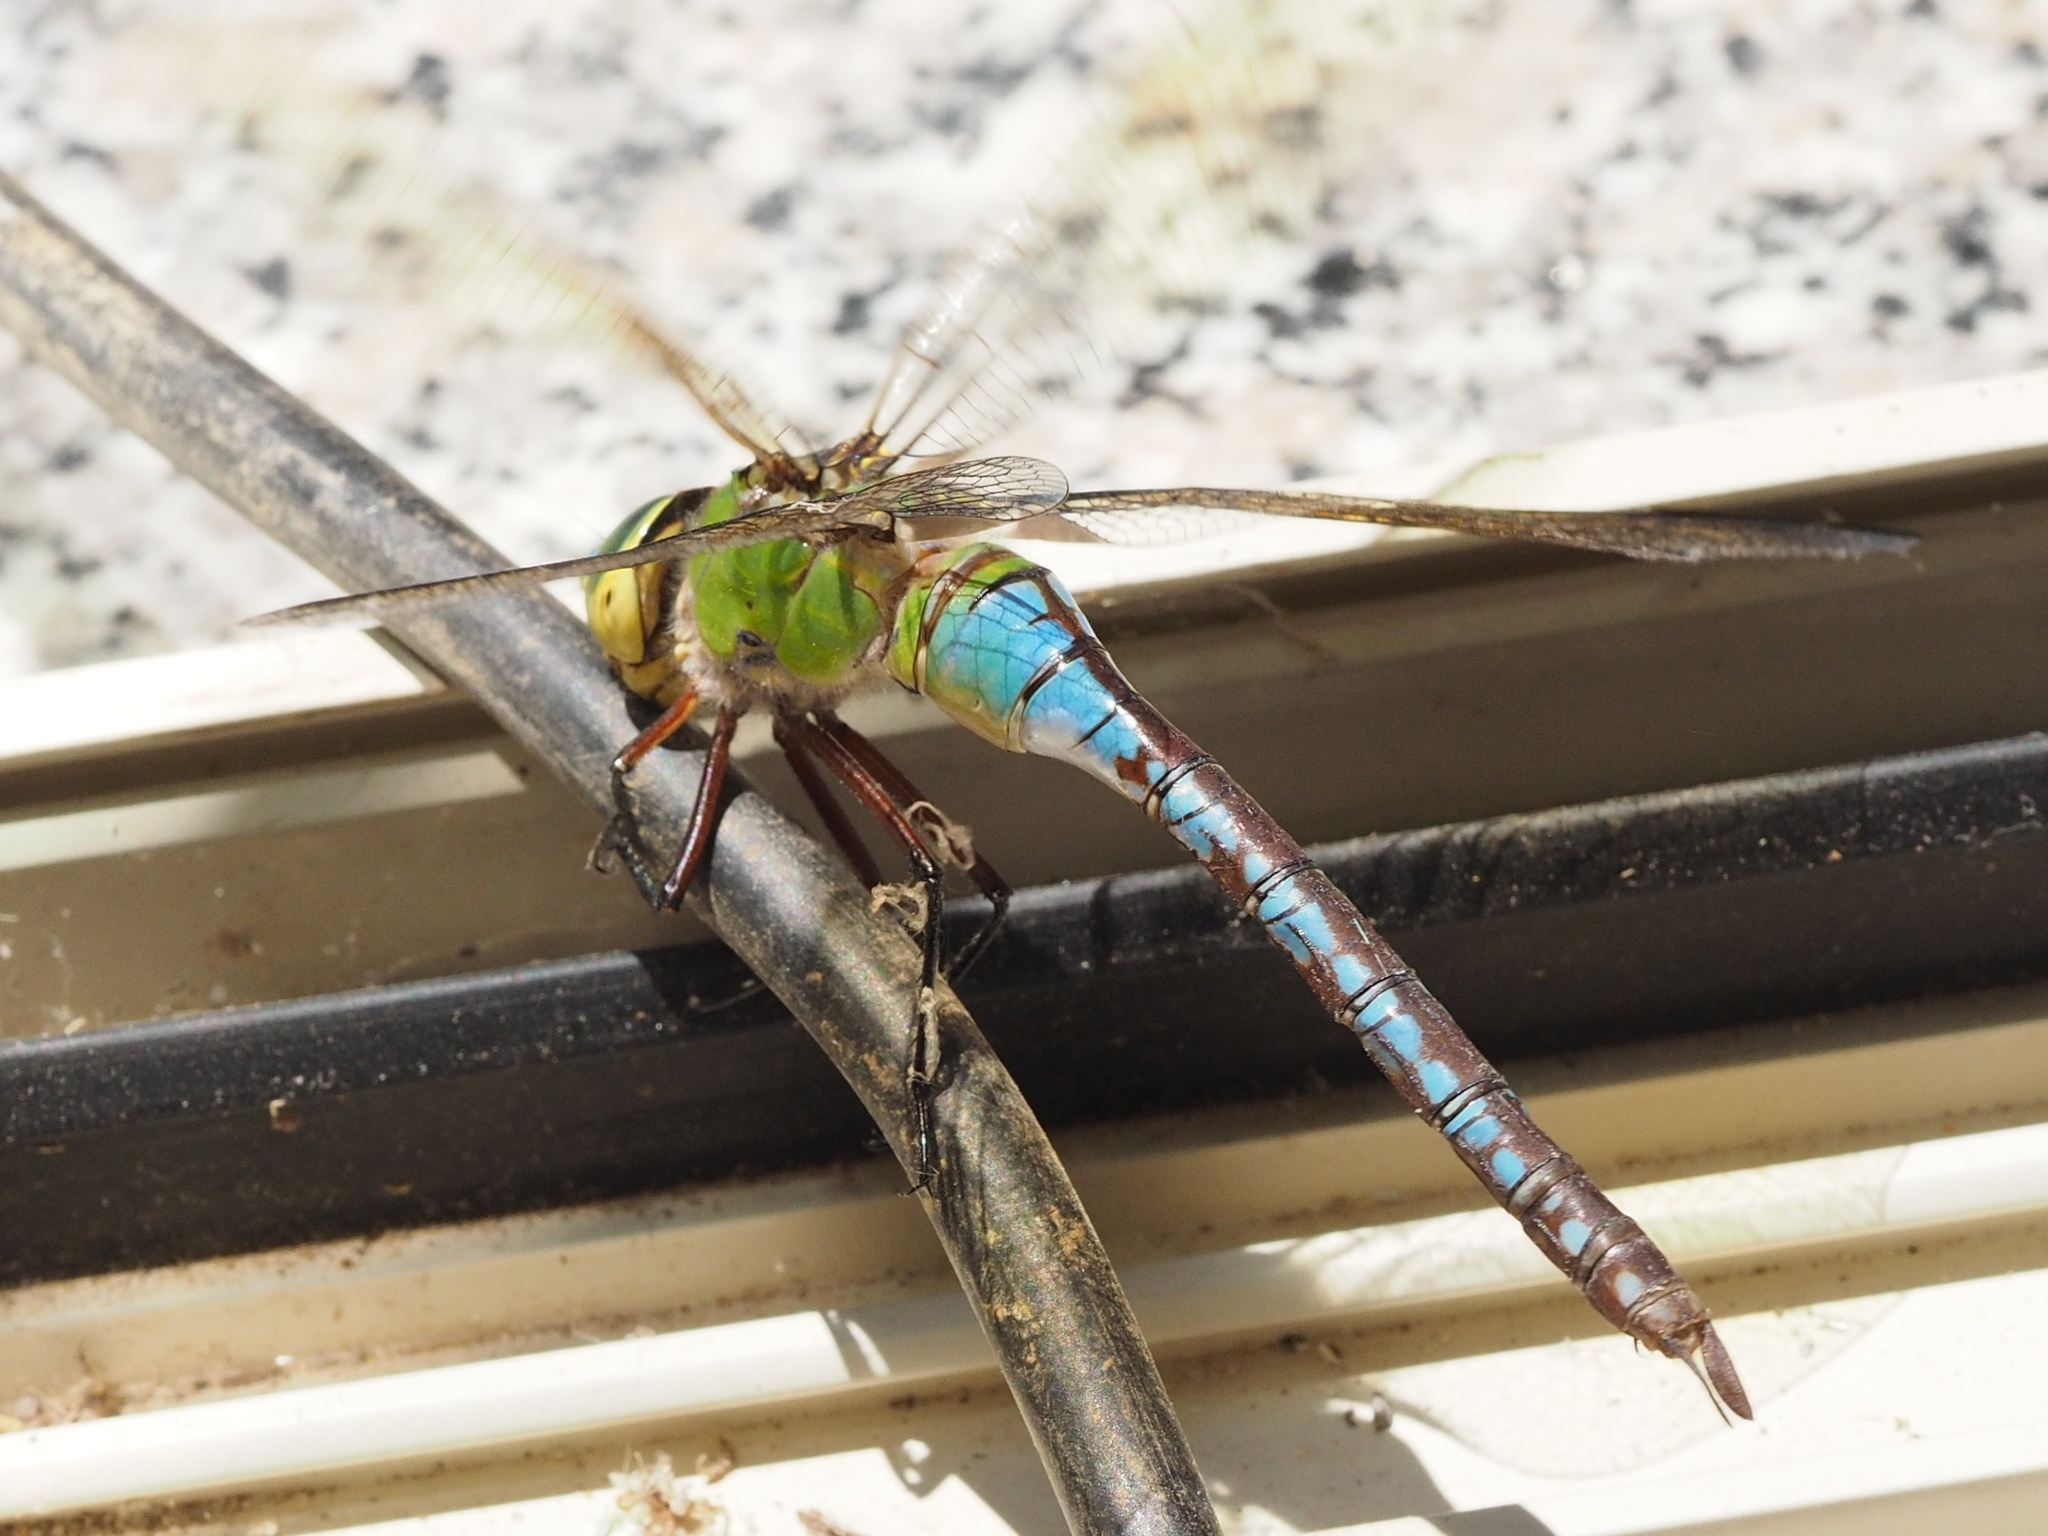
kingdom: Animalia
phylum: Arthropoda
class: Insecta
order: Odonata
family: Aeshnidae
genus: Anax
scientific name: Anax imperator
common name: Emperor dragonfly
